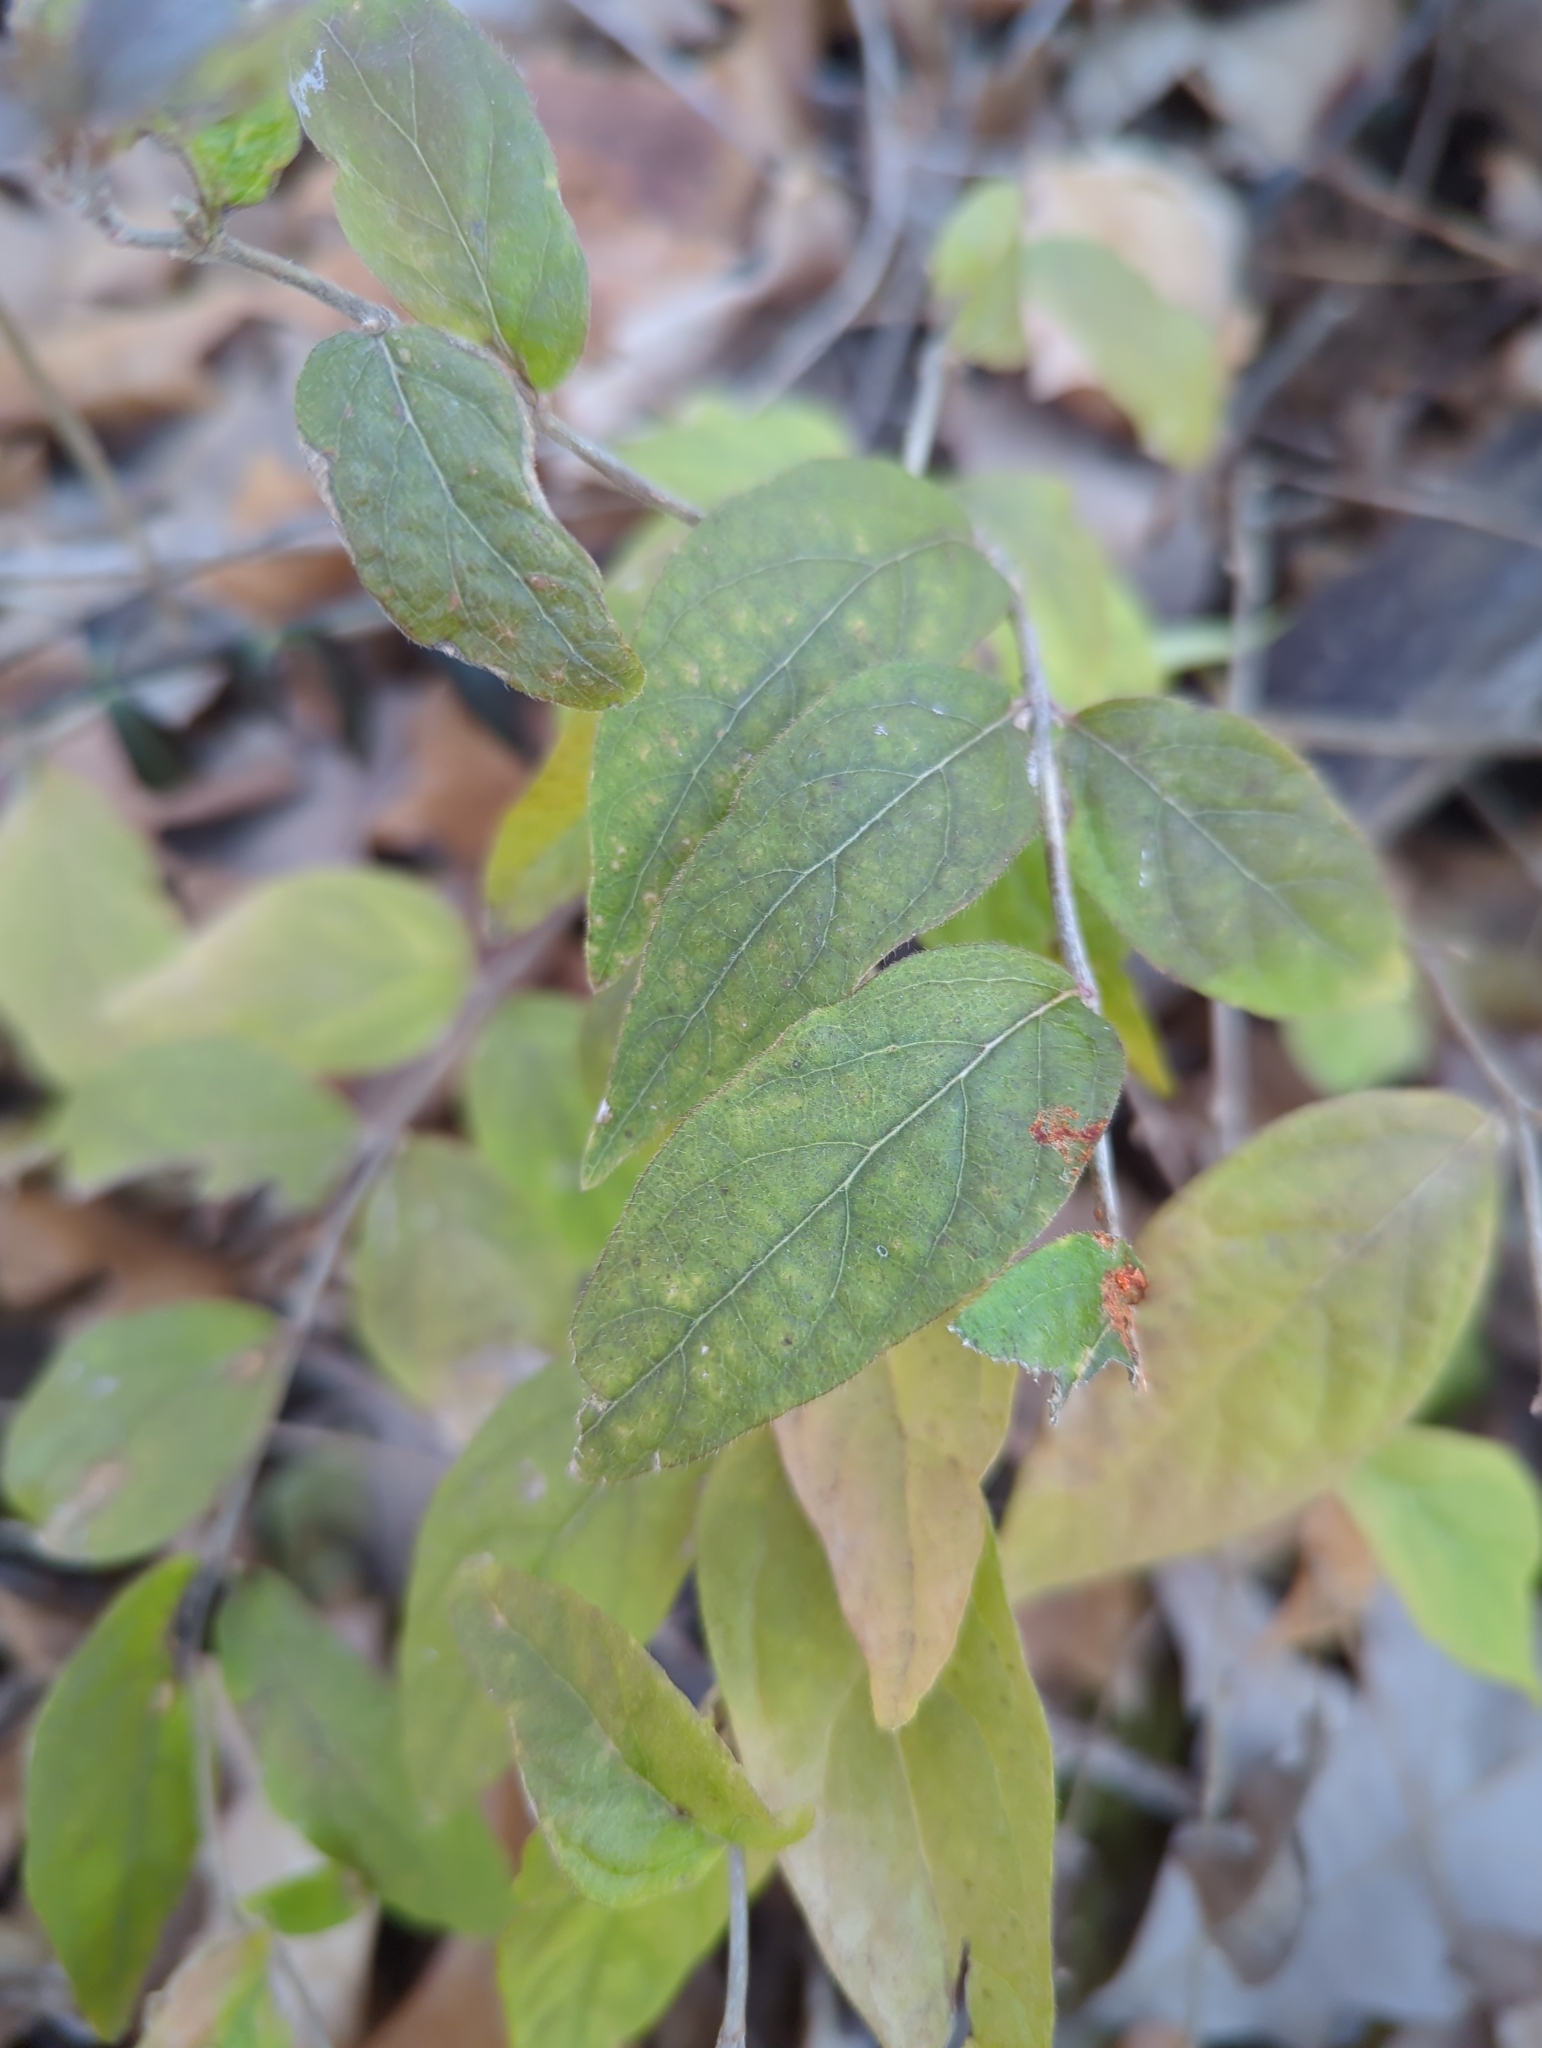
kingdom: Plantae
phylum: Tracheophyta
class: Magnoliopsida
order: Dipsacales
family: Caprifoliaceae
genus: Lonicera
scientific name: Lonicera maackii
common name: Amur honeysuckle
